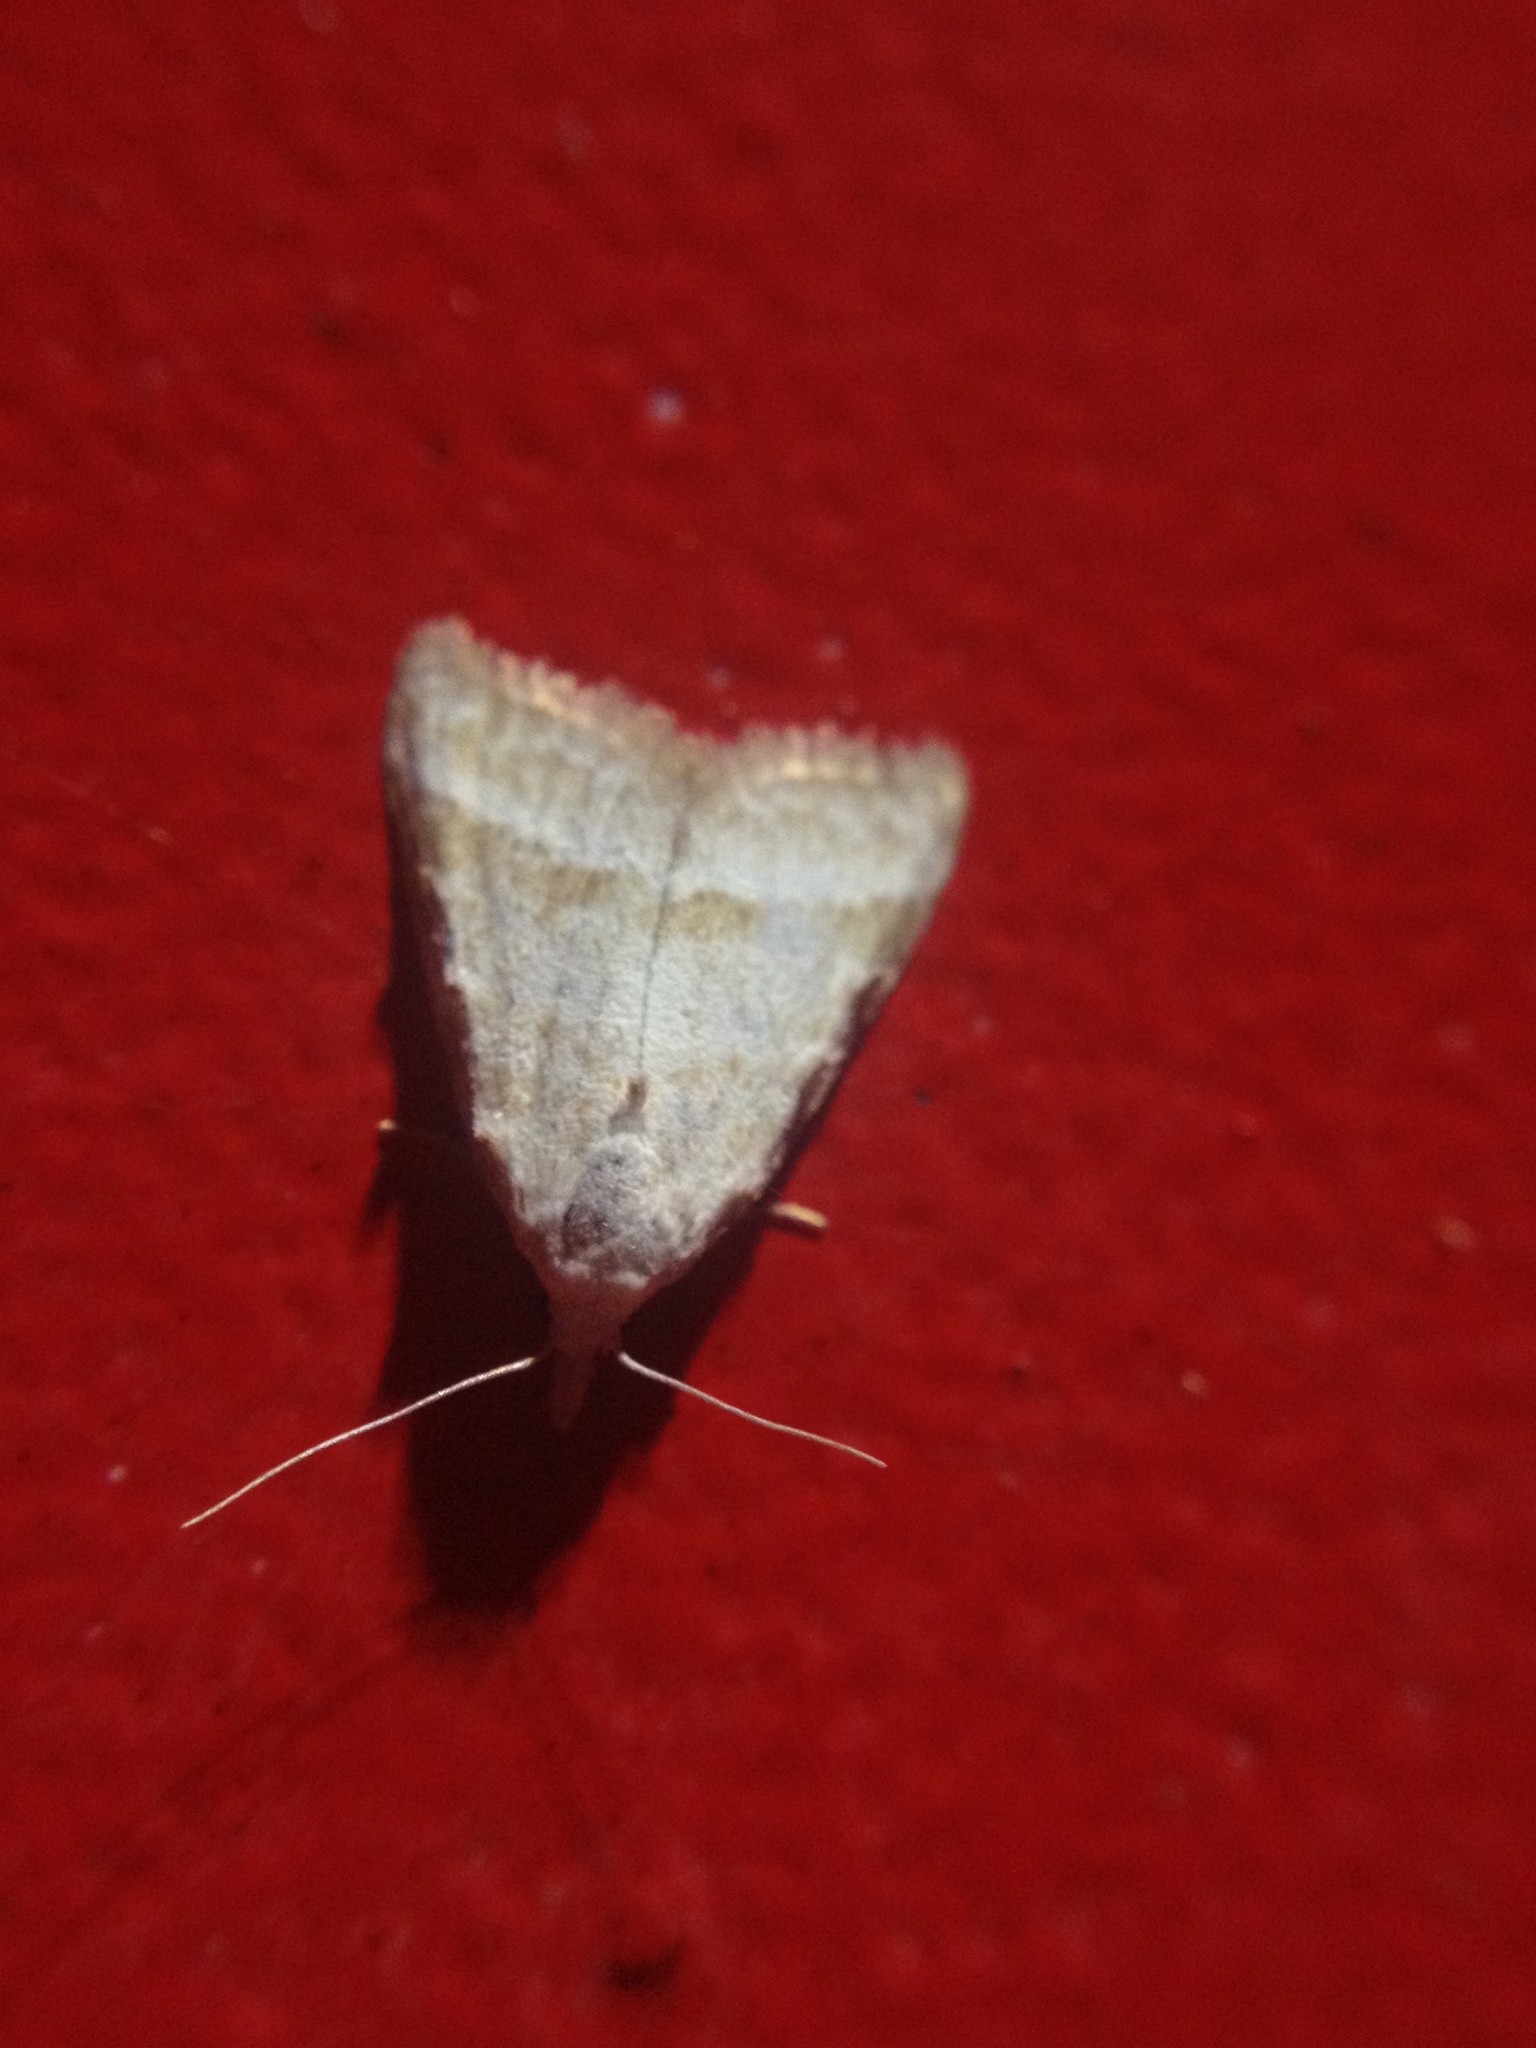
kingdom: Animalia
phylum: Arthropoda
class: Insecta
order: Lepidoptera
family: Nolidae
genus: Nola
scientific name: Nola aerugula
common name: Scarce black arches
